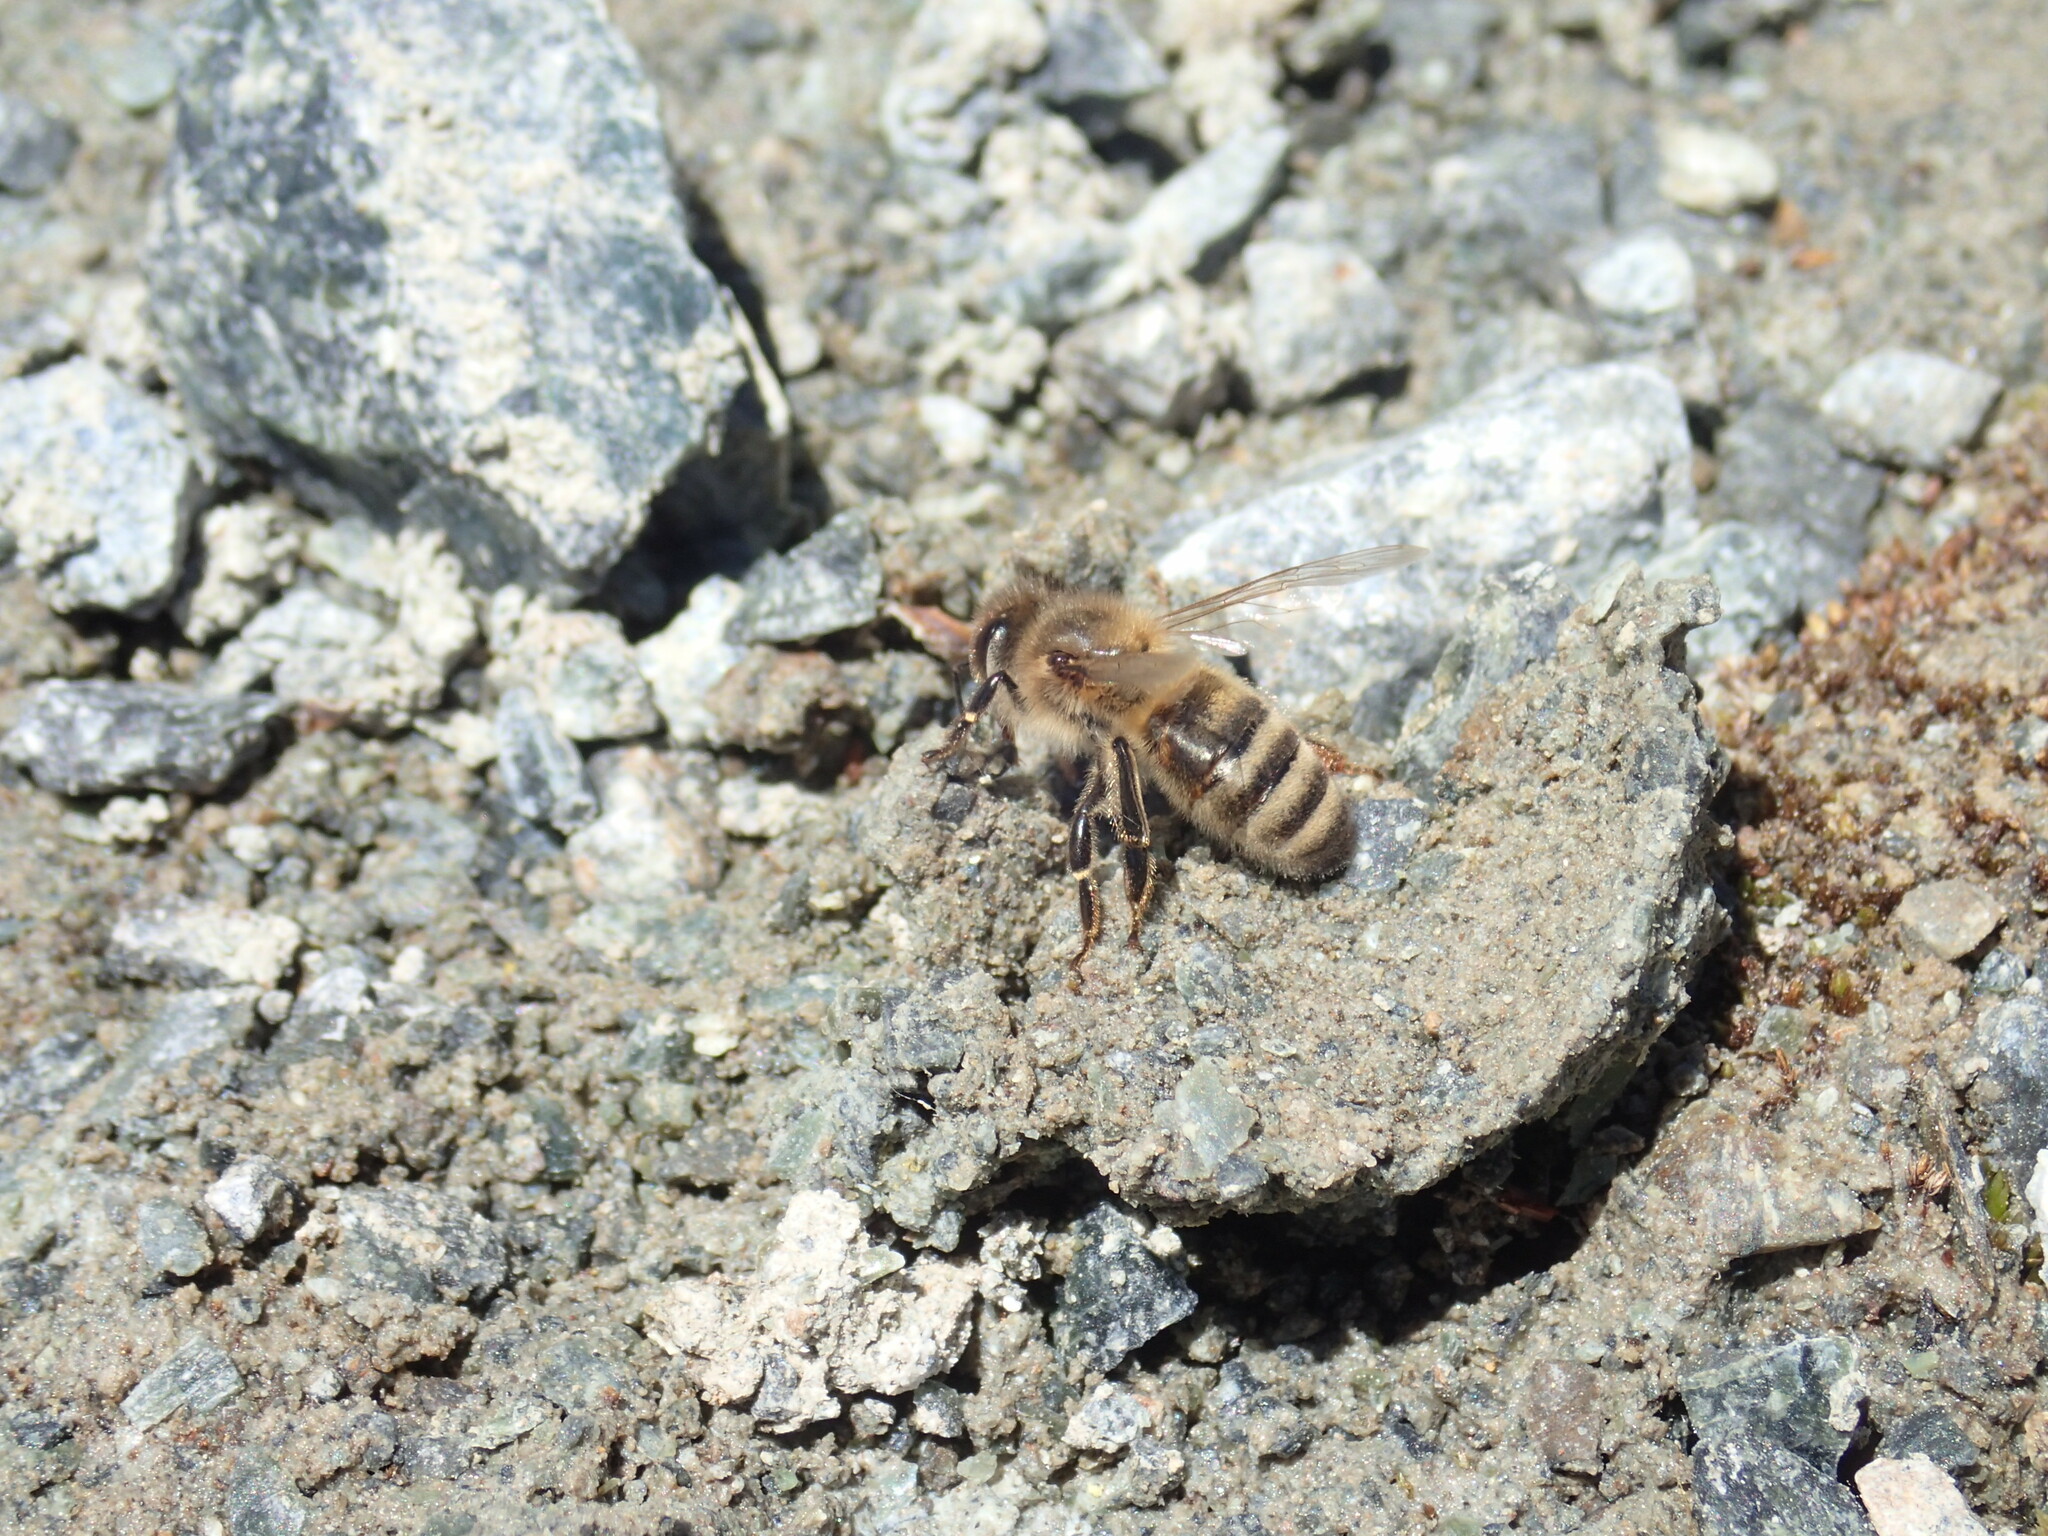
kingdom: Animalia
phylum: Arthropoda
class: Insecta
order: Hymenoptera
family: Apidae
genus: Apis
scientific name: Apis mellifera
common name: Honey bee
